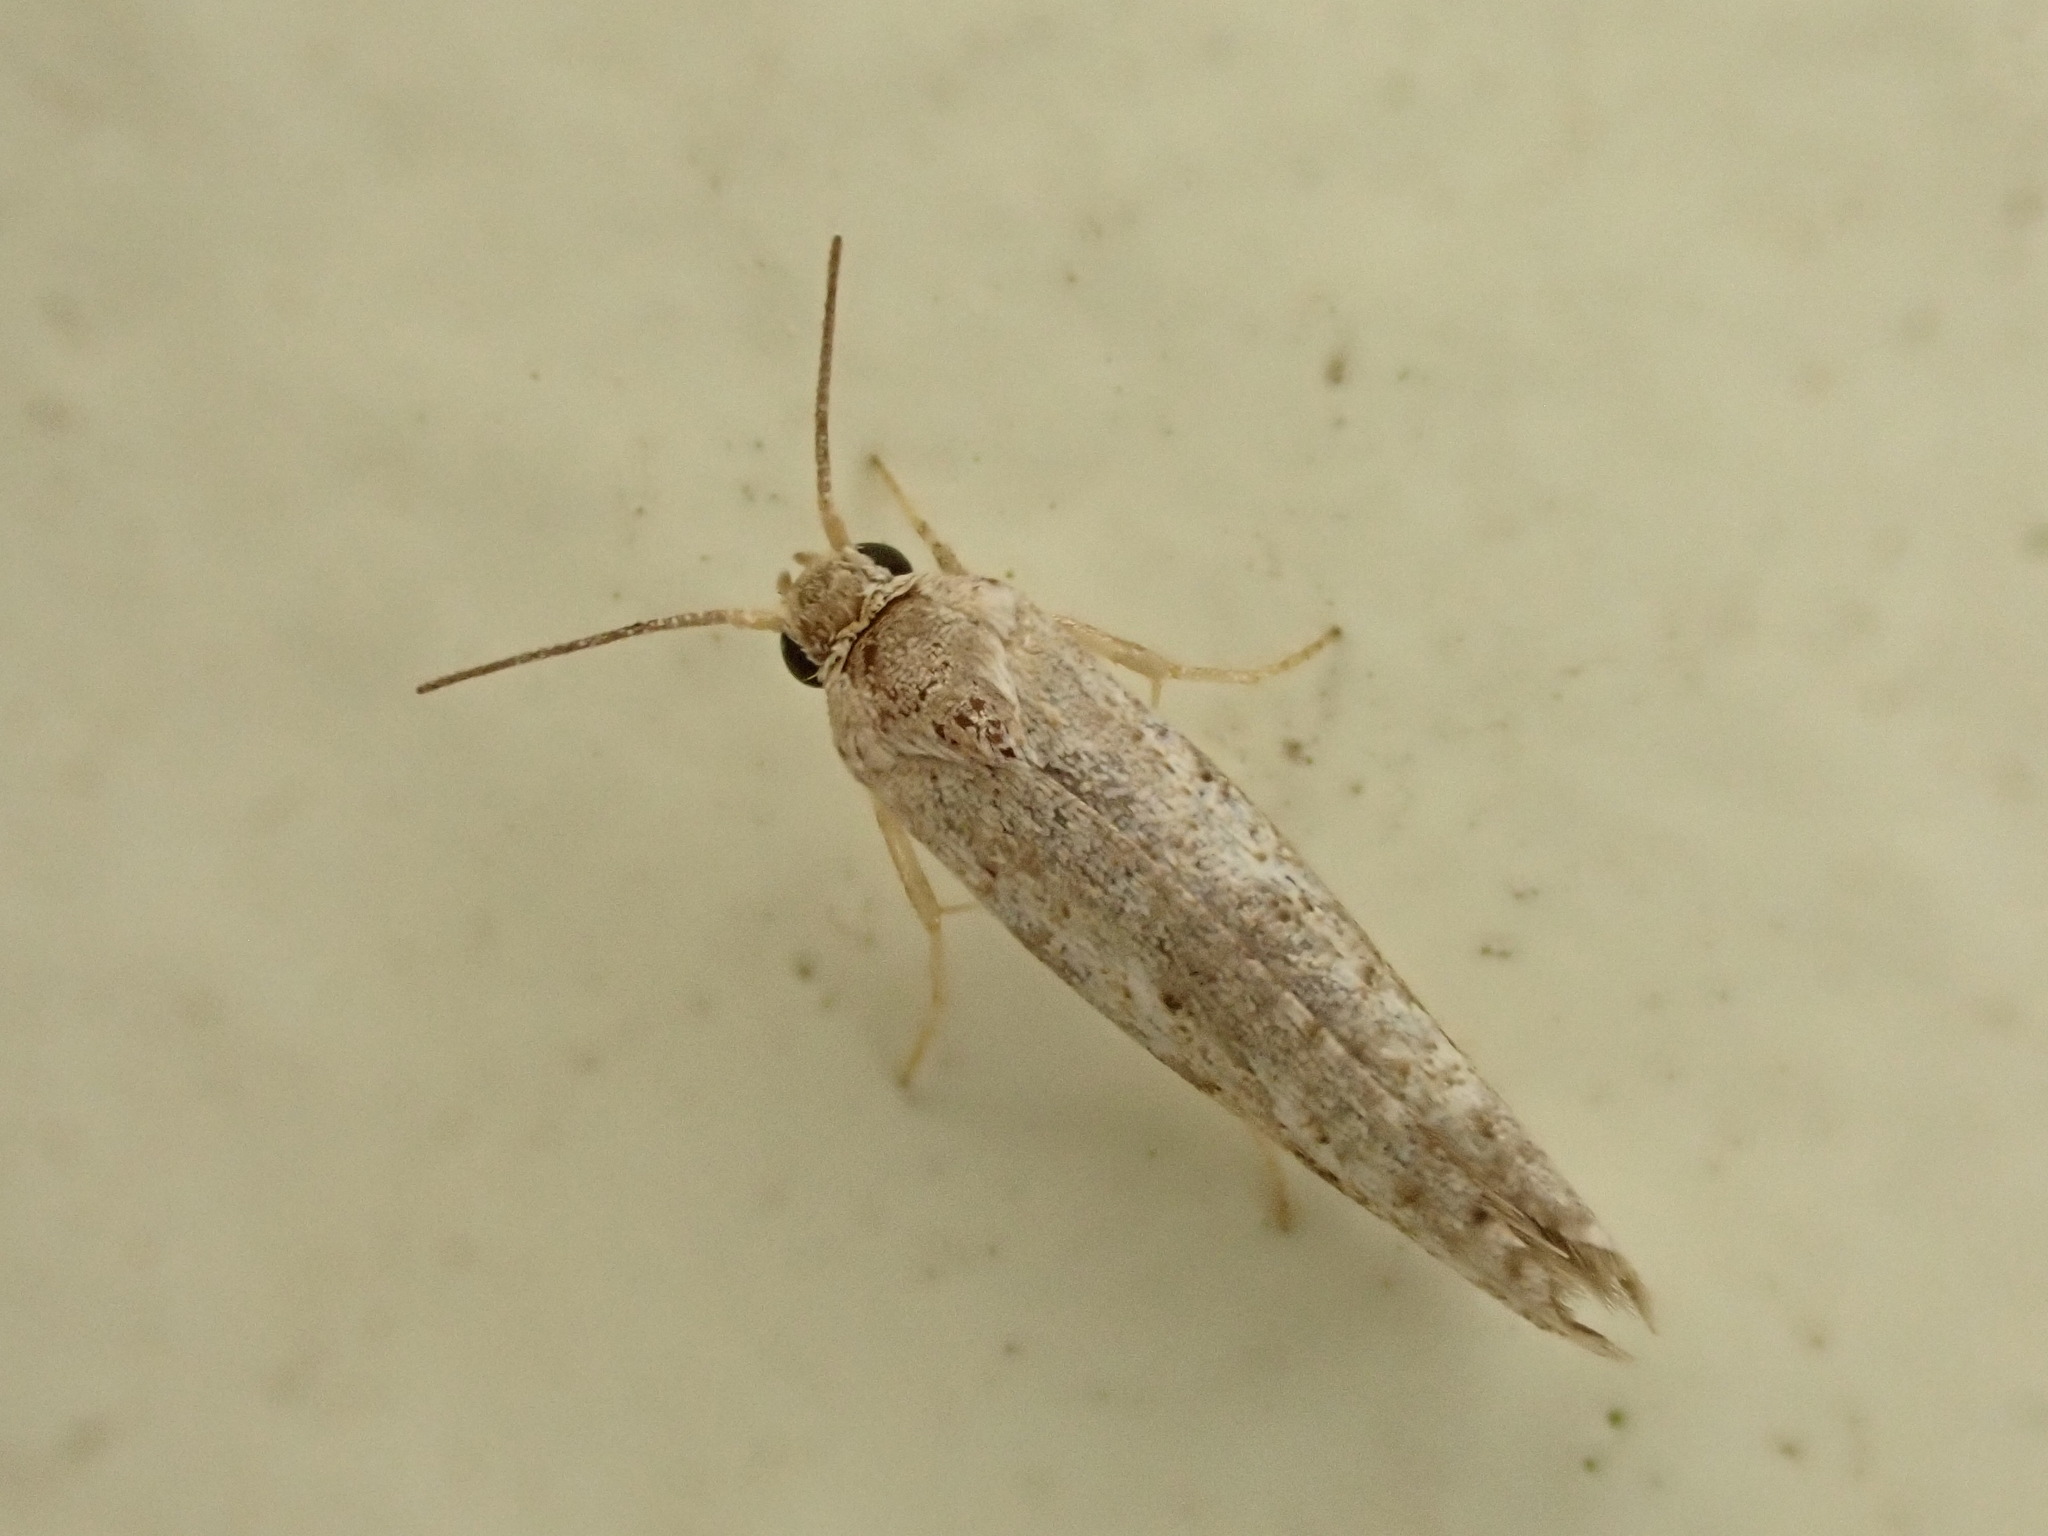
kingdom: Animalia
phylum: Arthropoda
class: Insecta
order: Lepidoptera
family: Praydidae
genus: Prays
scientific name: Prays nephelomima
